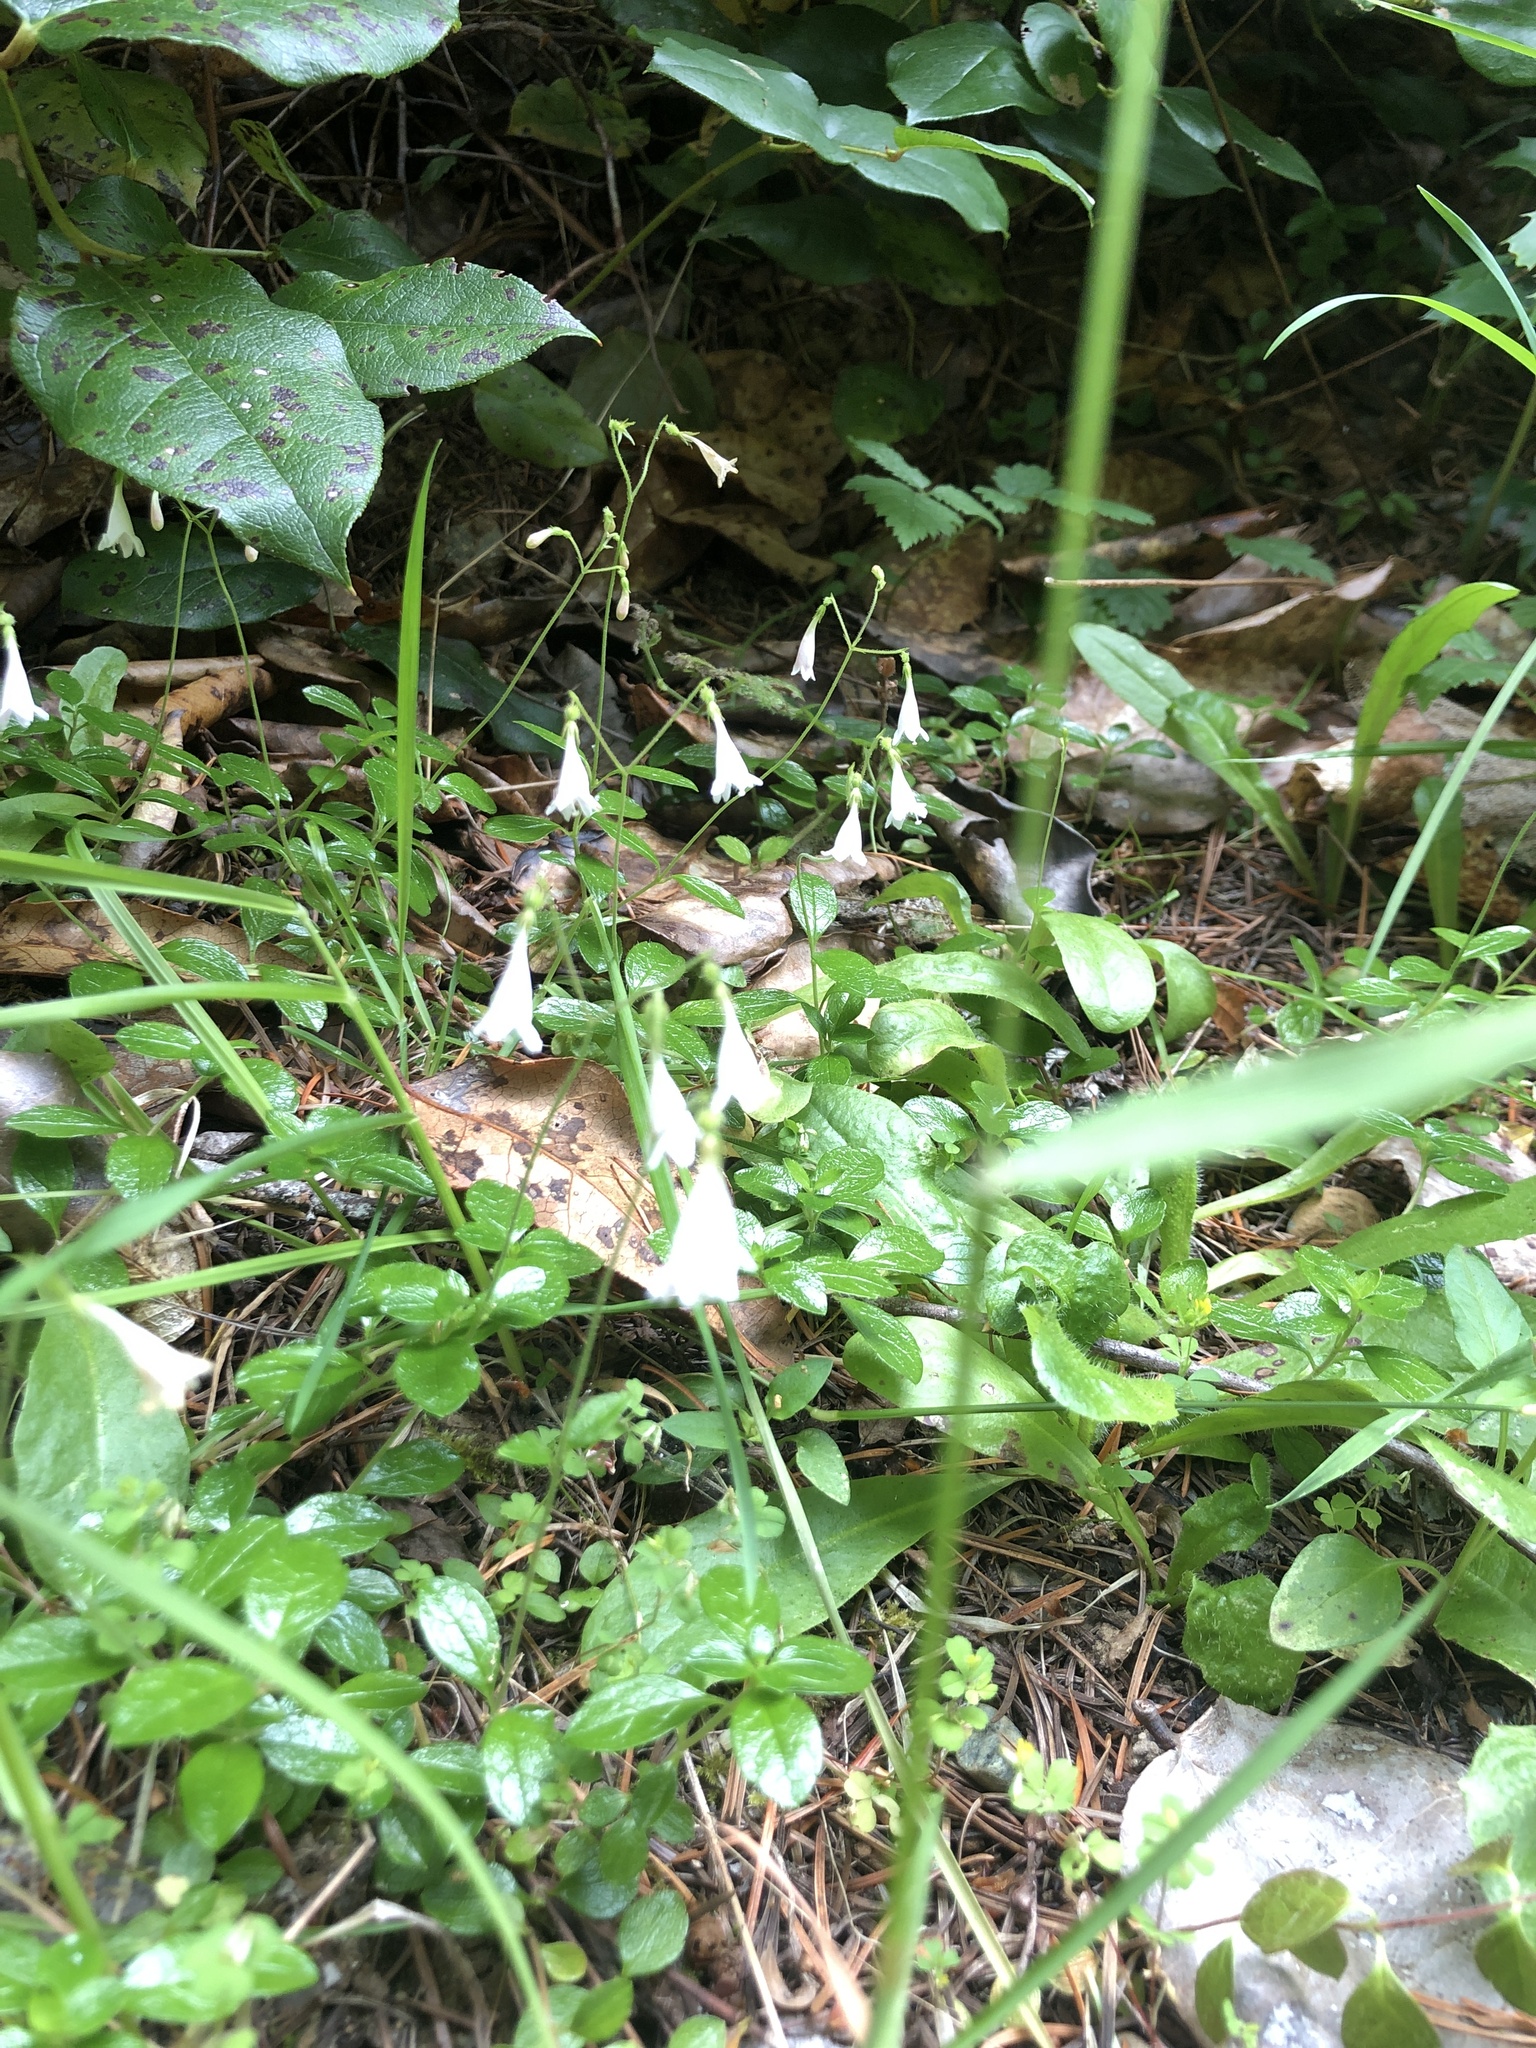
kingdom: Plantae
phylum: Tracheophyta
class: Magnoliopsida
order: Dipsacales
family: Caprifoliaceae
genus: Linnaea
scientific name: Linnaea borealis
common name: Twinflower
